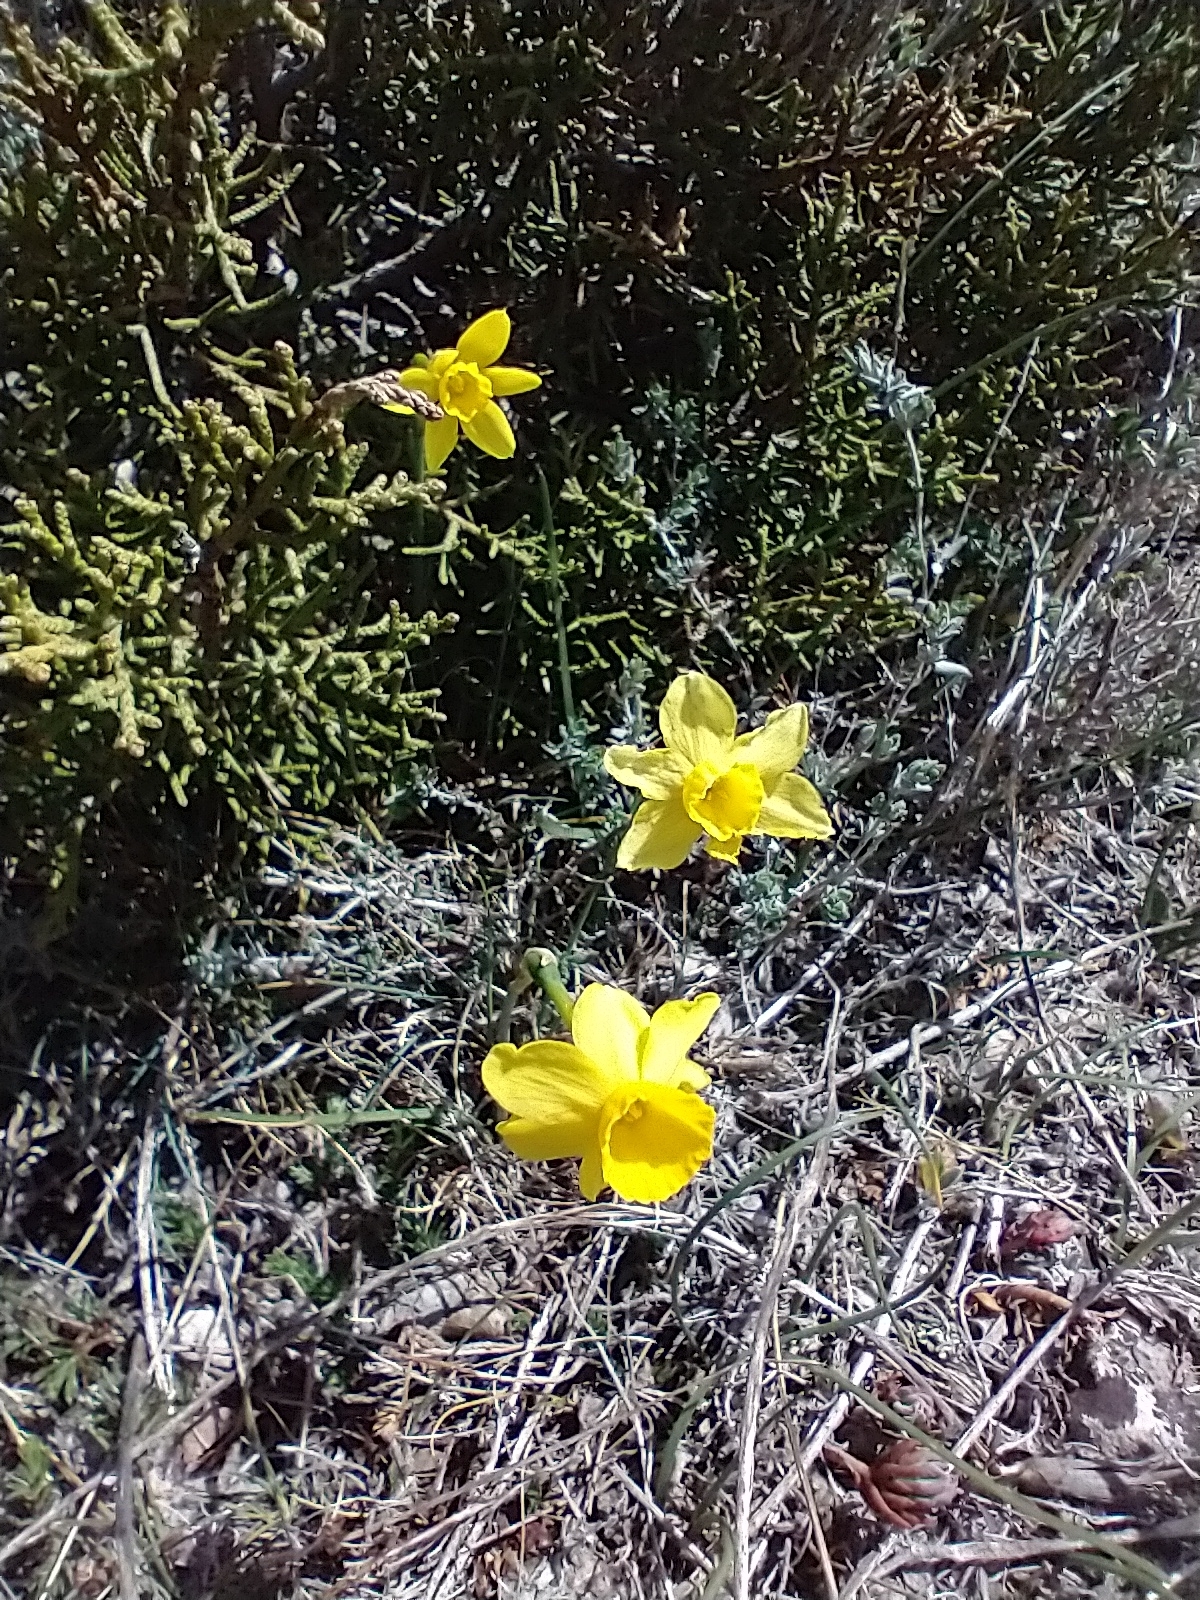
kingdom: Plantae
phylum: Tracheophyta
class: Liliopsida
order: Asparagales
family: Amaryllidaceae
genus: Narcissus
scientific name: Narcissus assoanus
